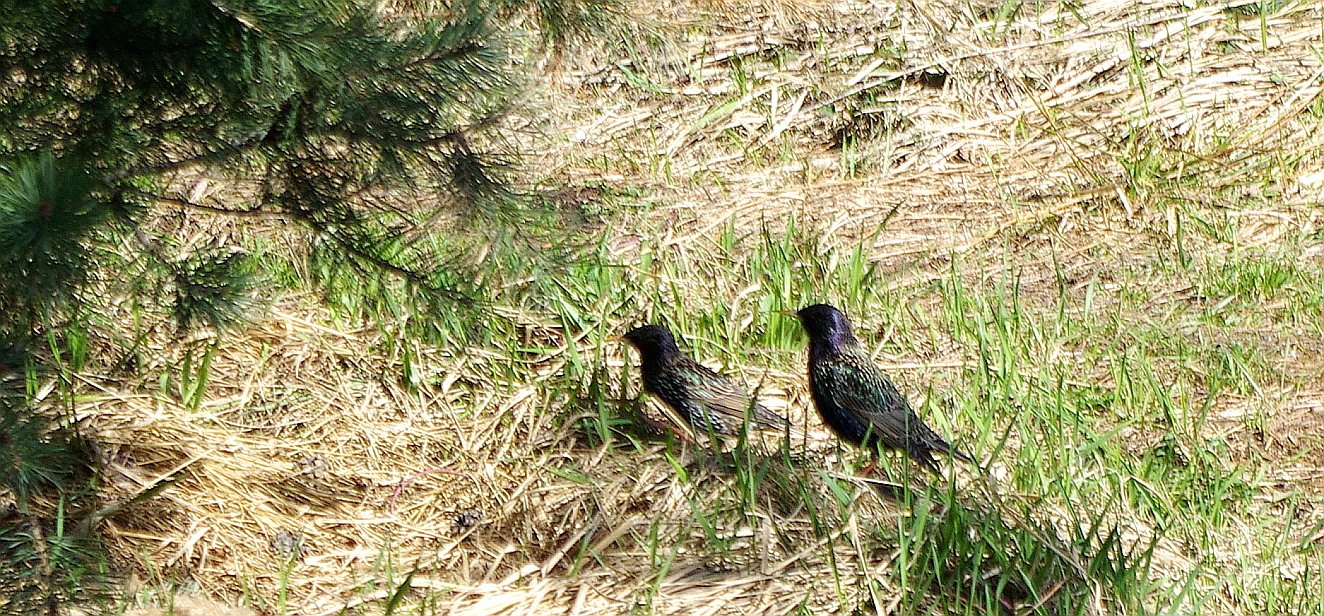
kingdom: Animalia
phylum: Chordata
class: Aves
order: Passeriformes
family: Sturnidae
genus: Sturnus
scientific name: Sturnus vulgaris
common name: Common starling
